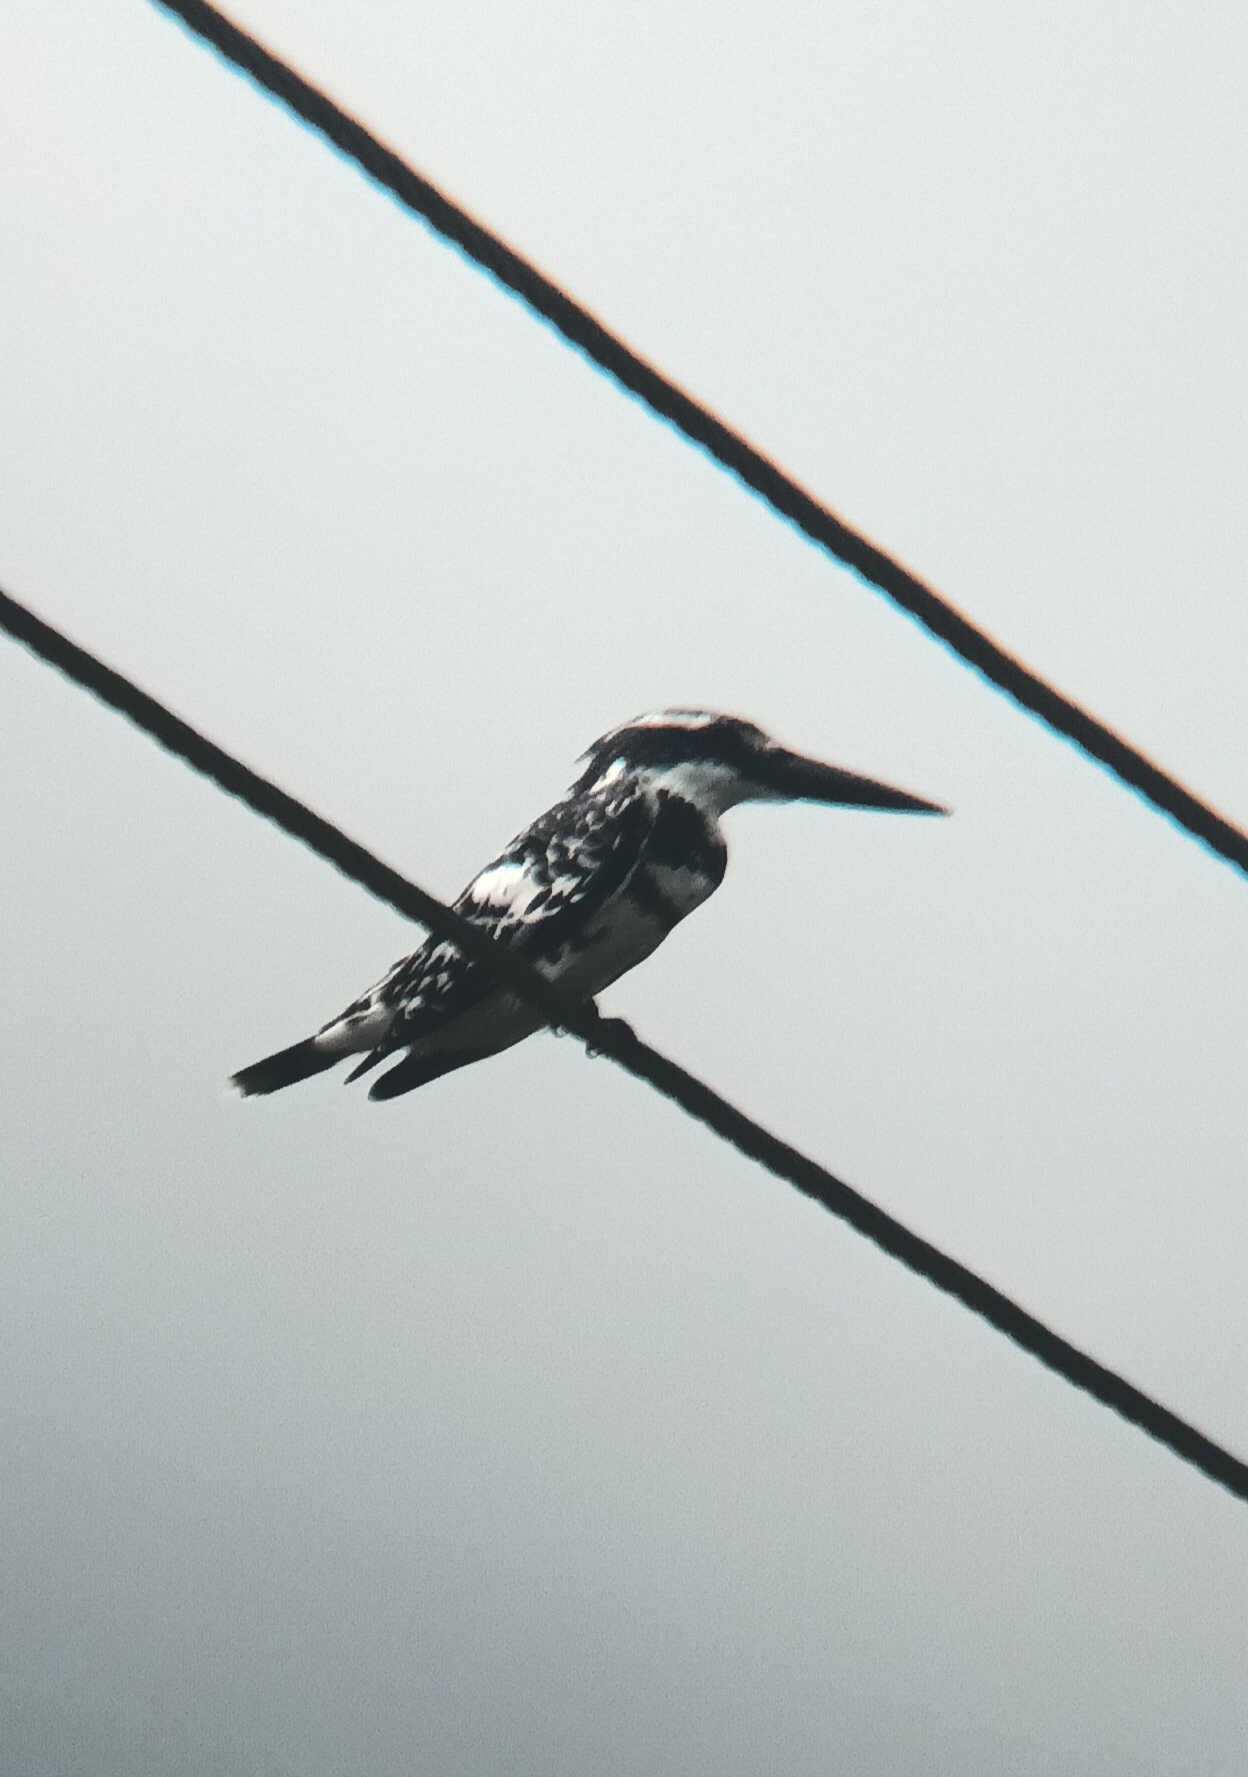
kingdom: Animalia
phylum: Chordata
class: Aves
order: Coraciiformes
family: Alcedinidae
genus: Ceryle
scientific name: Ceryle rudis
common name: Pied kingfisher
